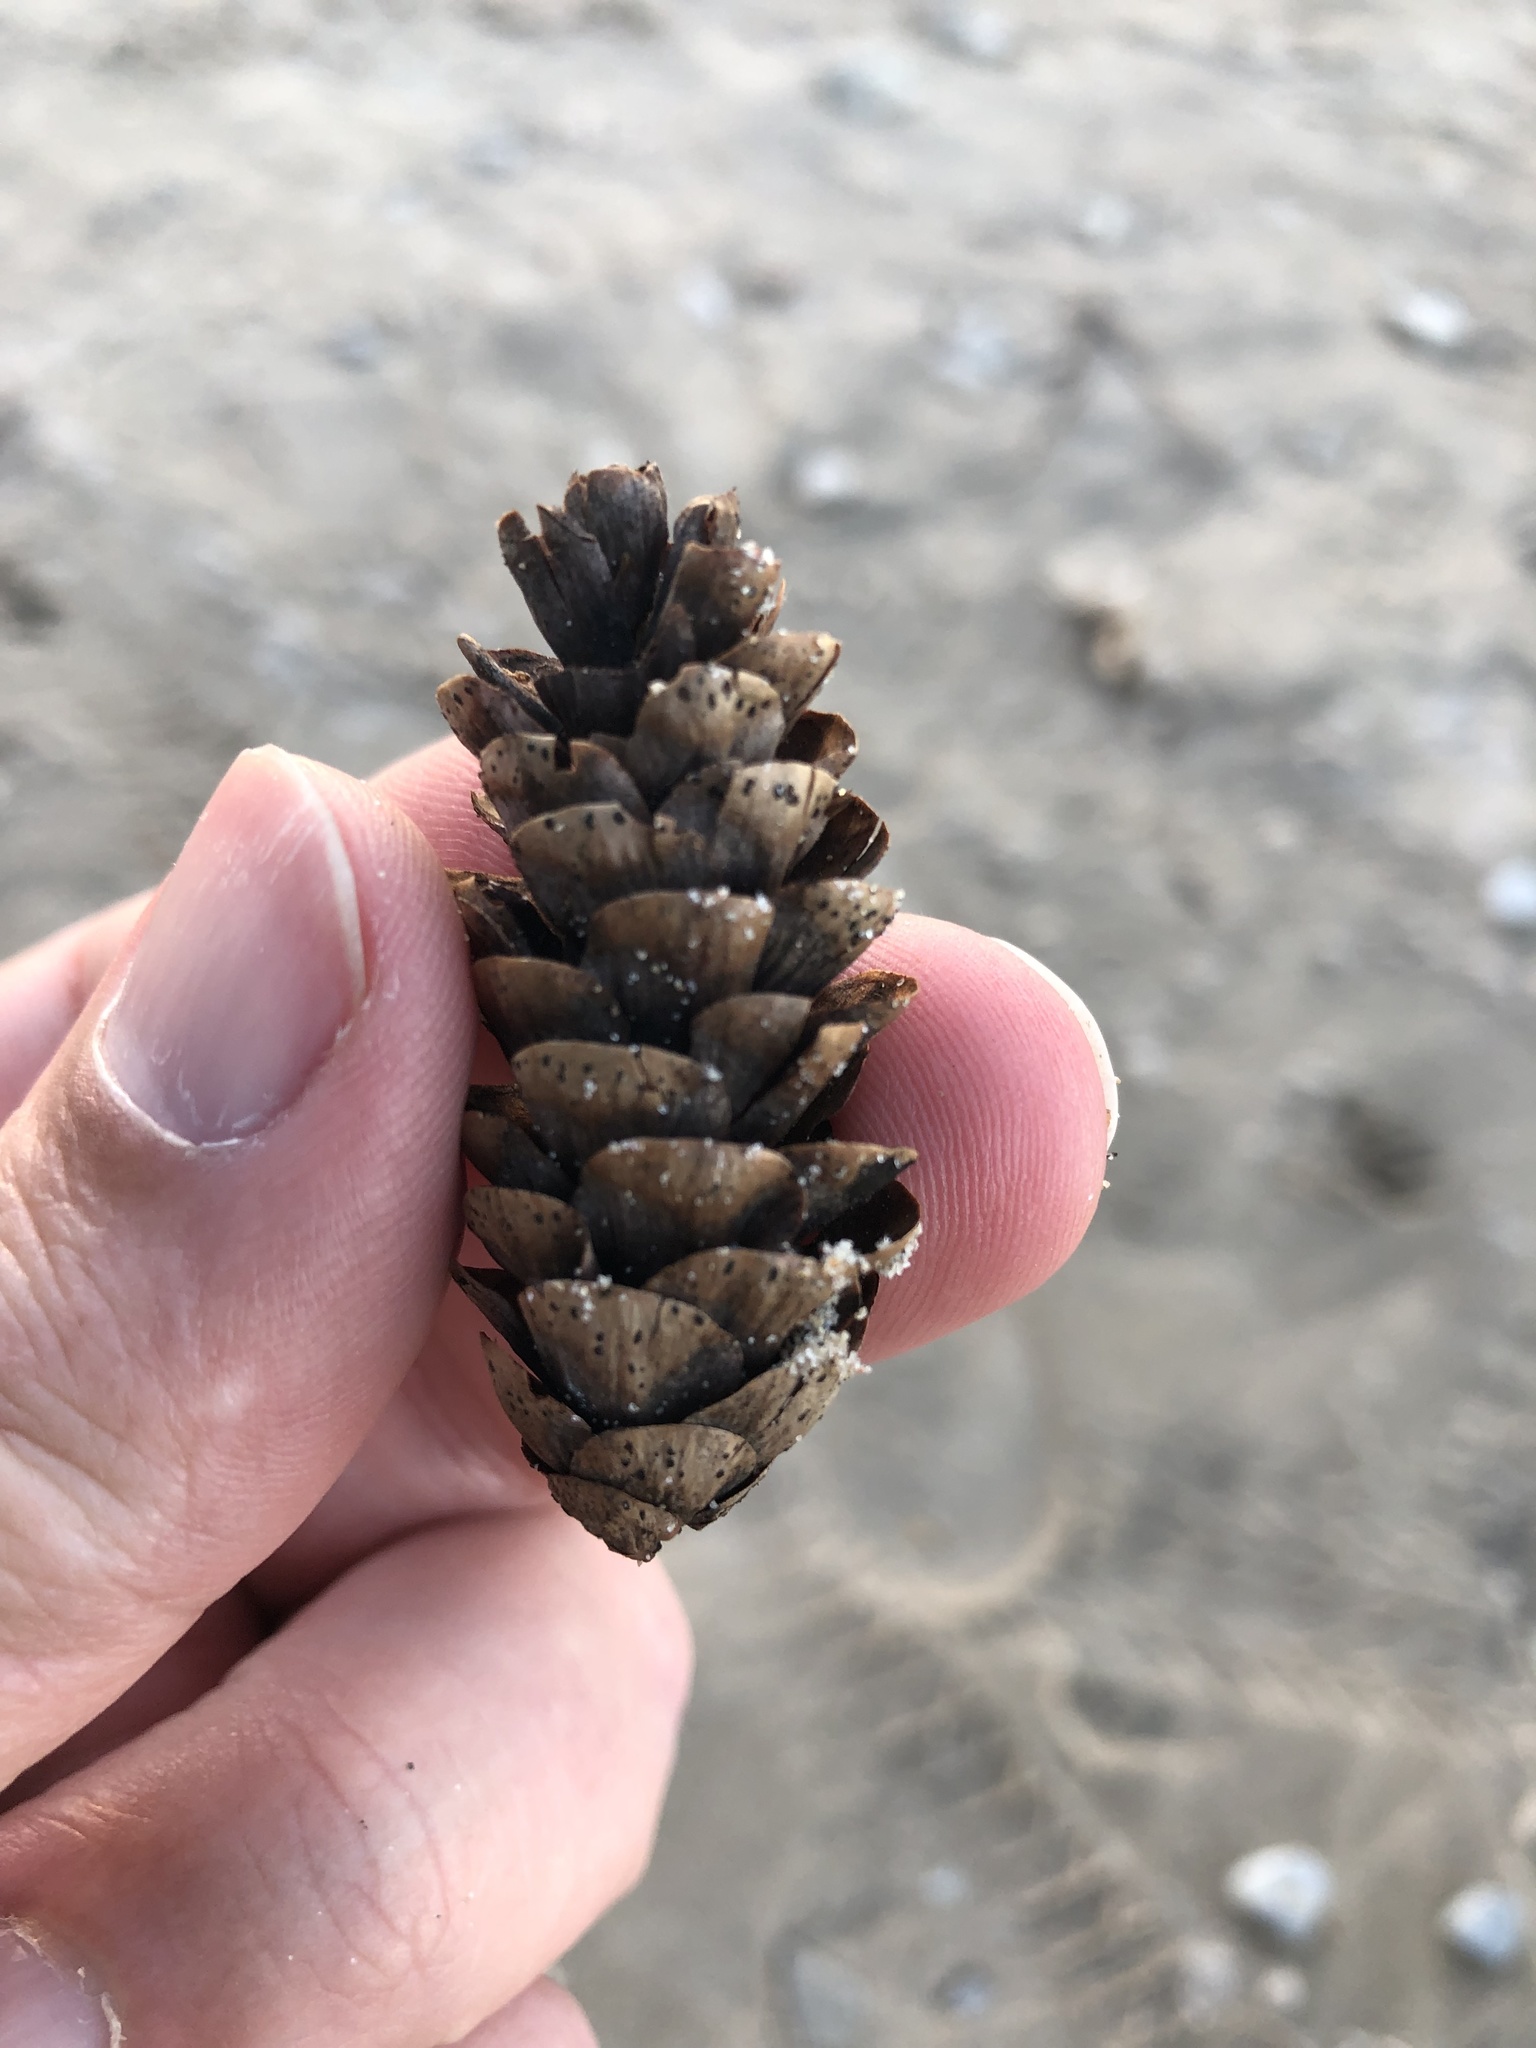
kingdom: Plantae
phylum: Tracheophyta
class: Pinopsida
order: Pinales
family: Pinaceae
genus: Picea
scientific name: Picea glauca
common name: White spruce
